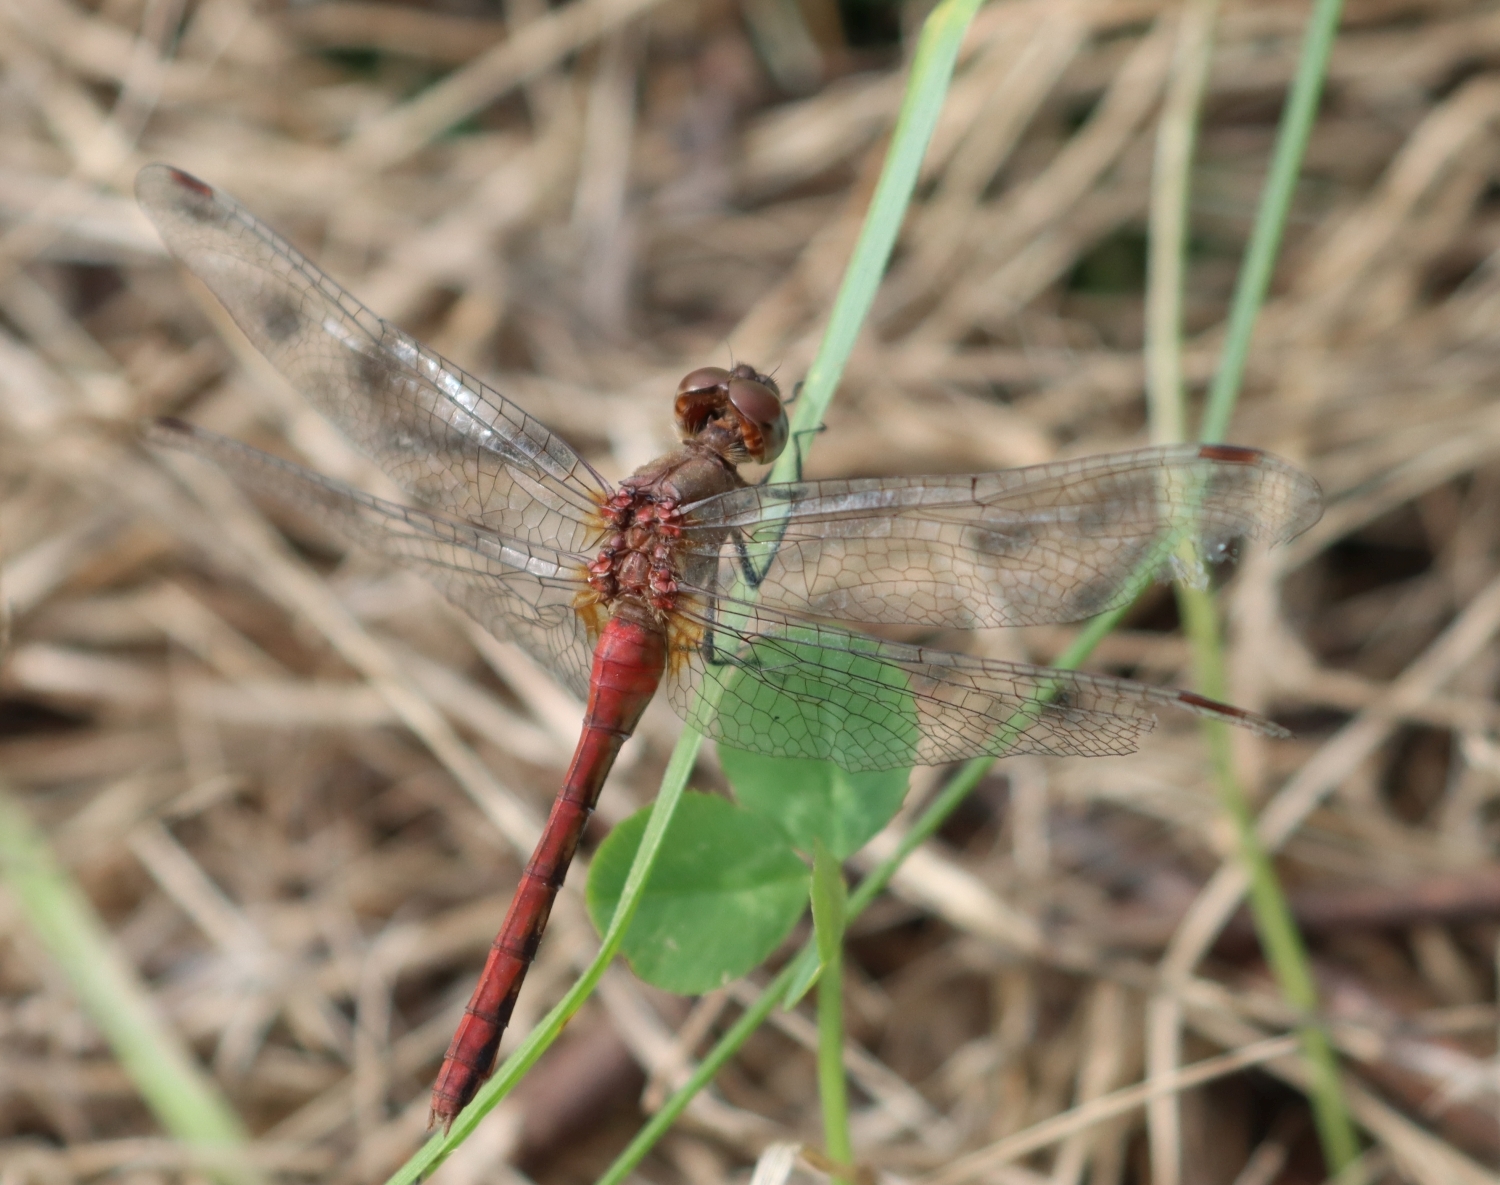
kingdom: Animalia
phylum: Arthropoda
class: Insecta
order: Odonata
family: Libellulidae
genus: Sympetrum
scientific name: Sympetrum rubicundulum
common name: Ruby meadowhawk
